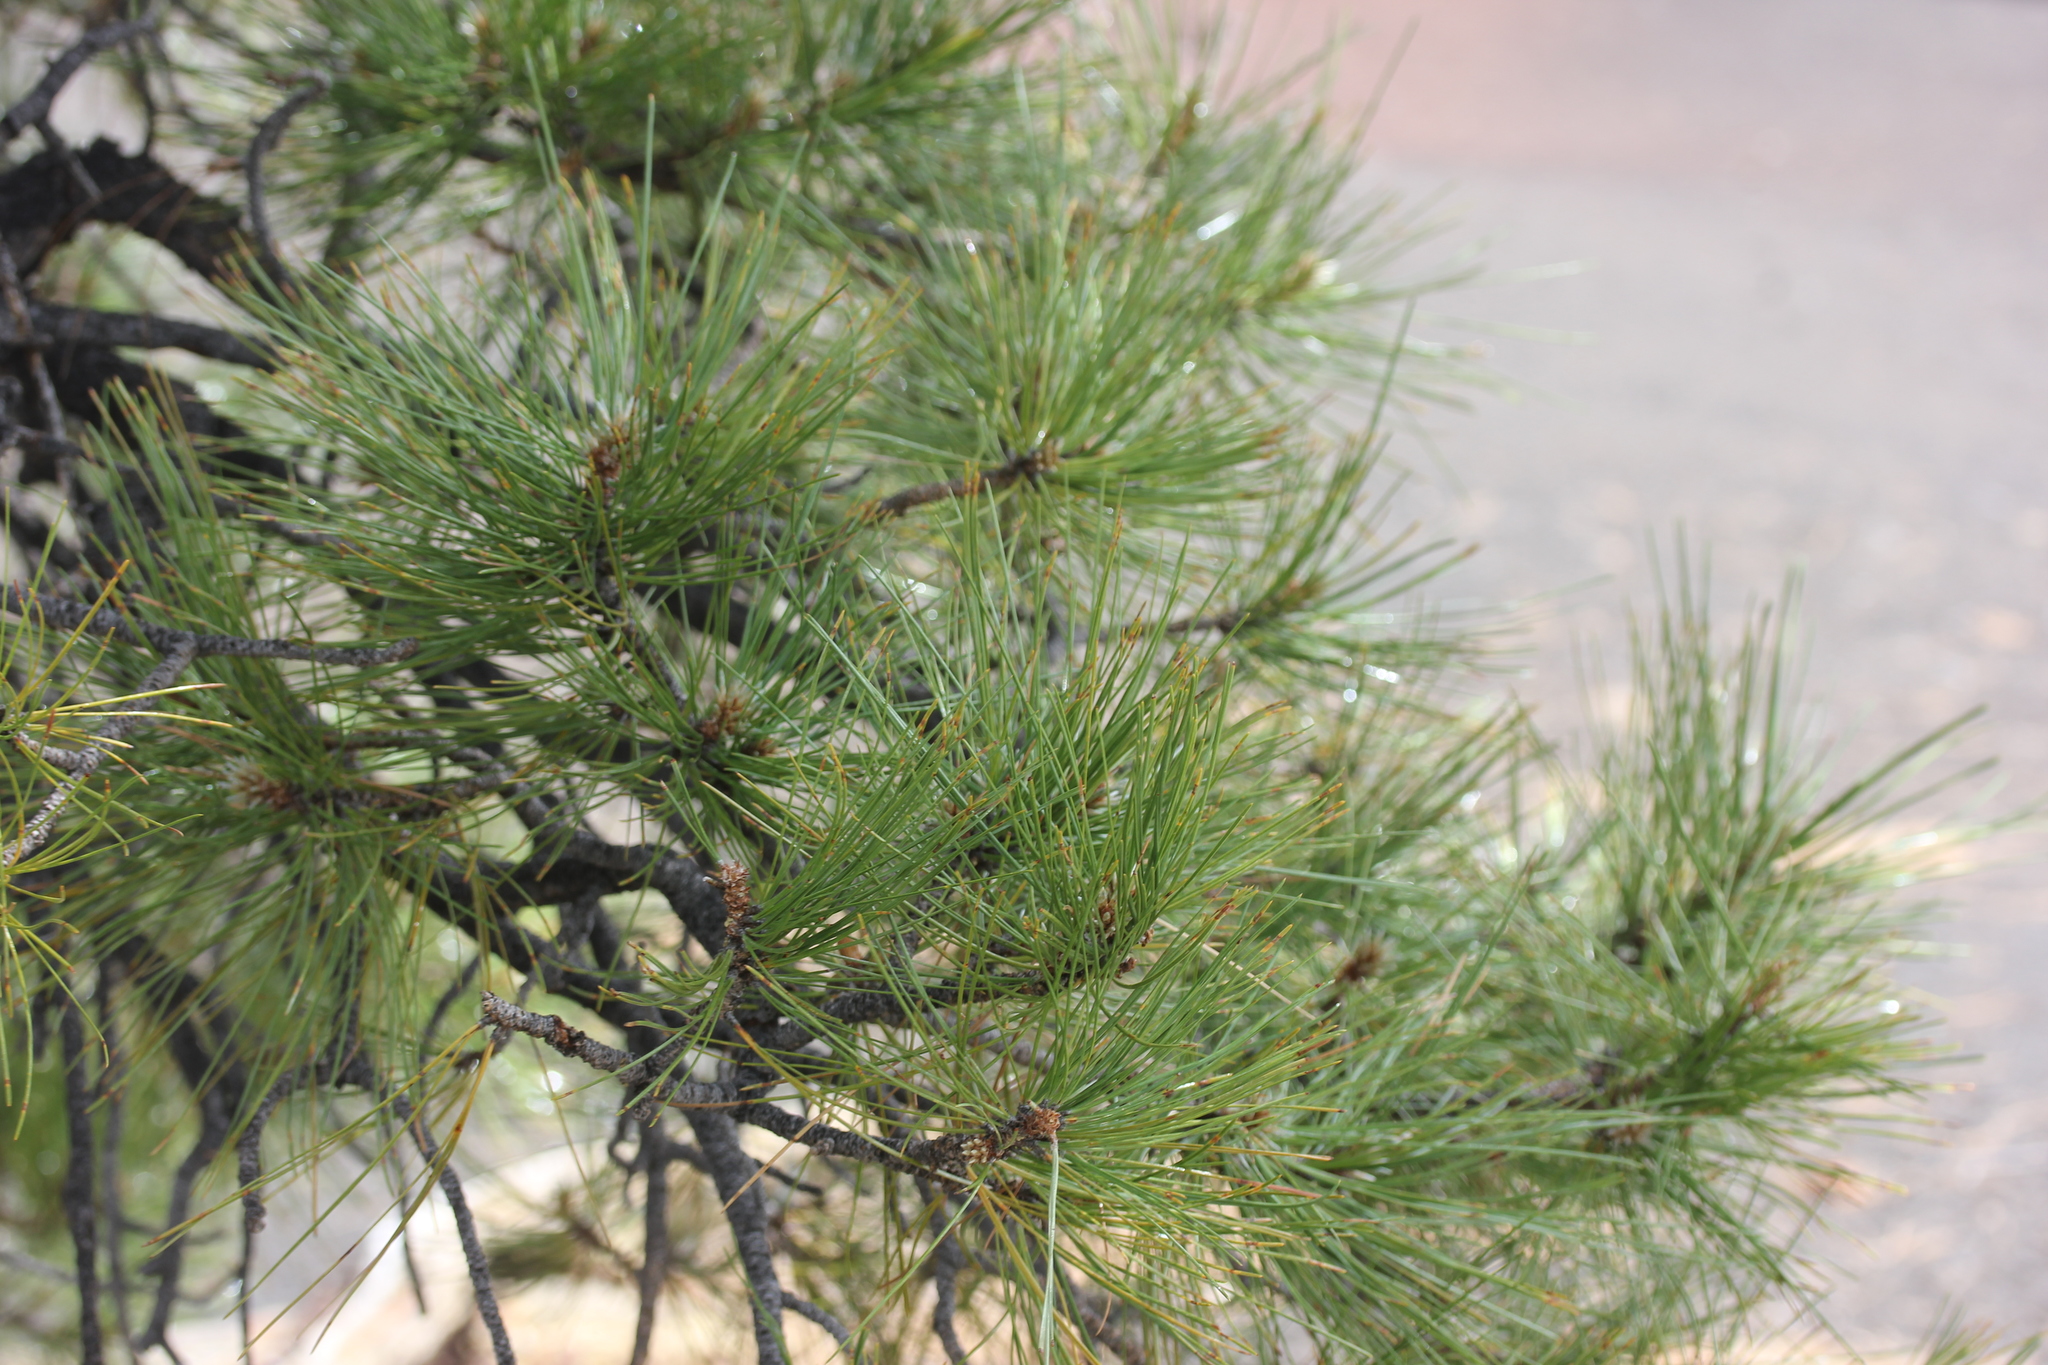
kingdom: Plantae
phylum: Tracheophyta
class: Pinopsida
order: Pinales
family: Pinaceae
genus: Pinus
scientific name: Pinus ponderosa
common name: Western yellow-pine
